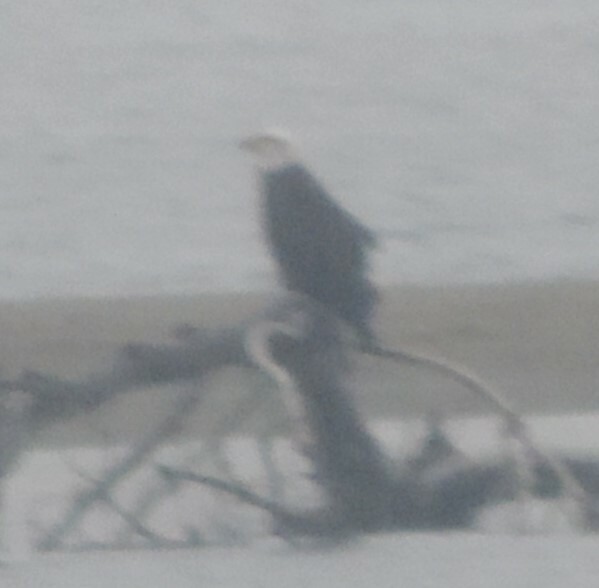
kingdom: Animalia
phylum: Chordata
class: Aves
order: Accipitriformes
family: Accipitridae
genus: Haliaeetus
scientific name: Haliaeetus leucocephalus
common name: Bald eagle
